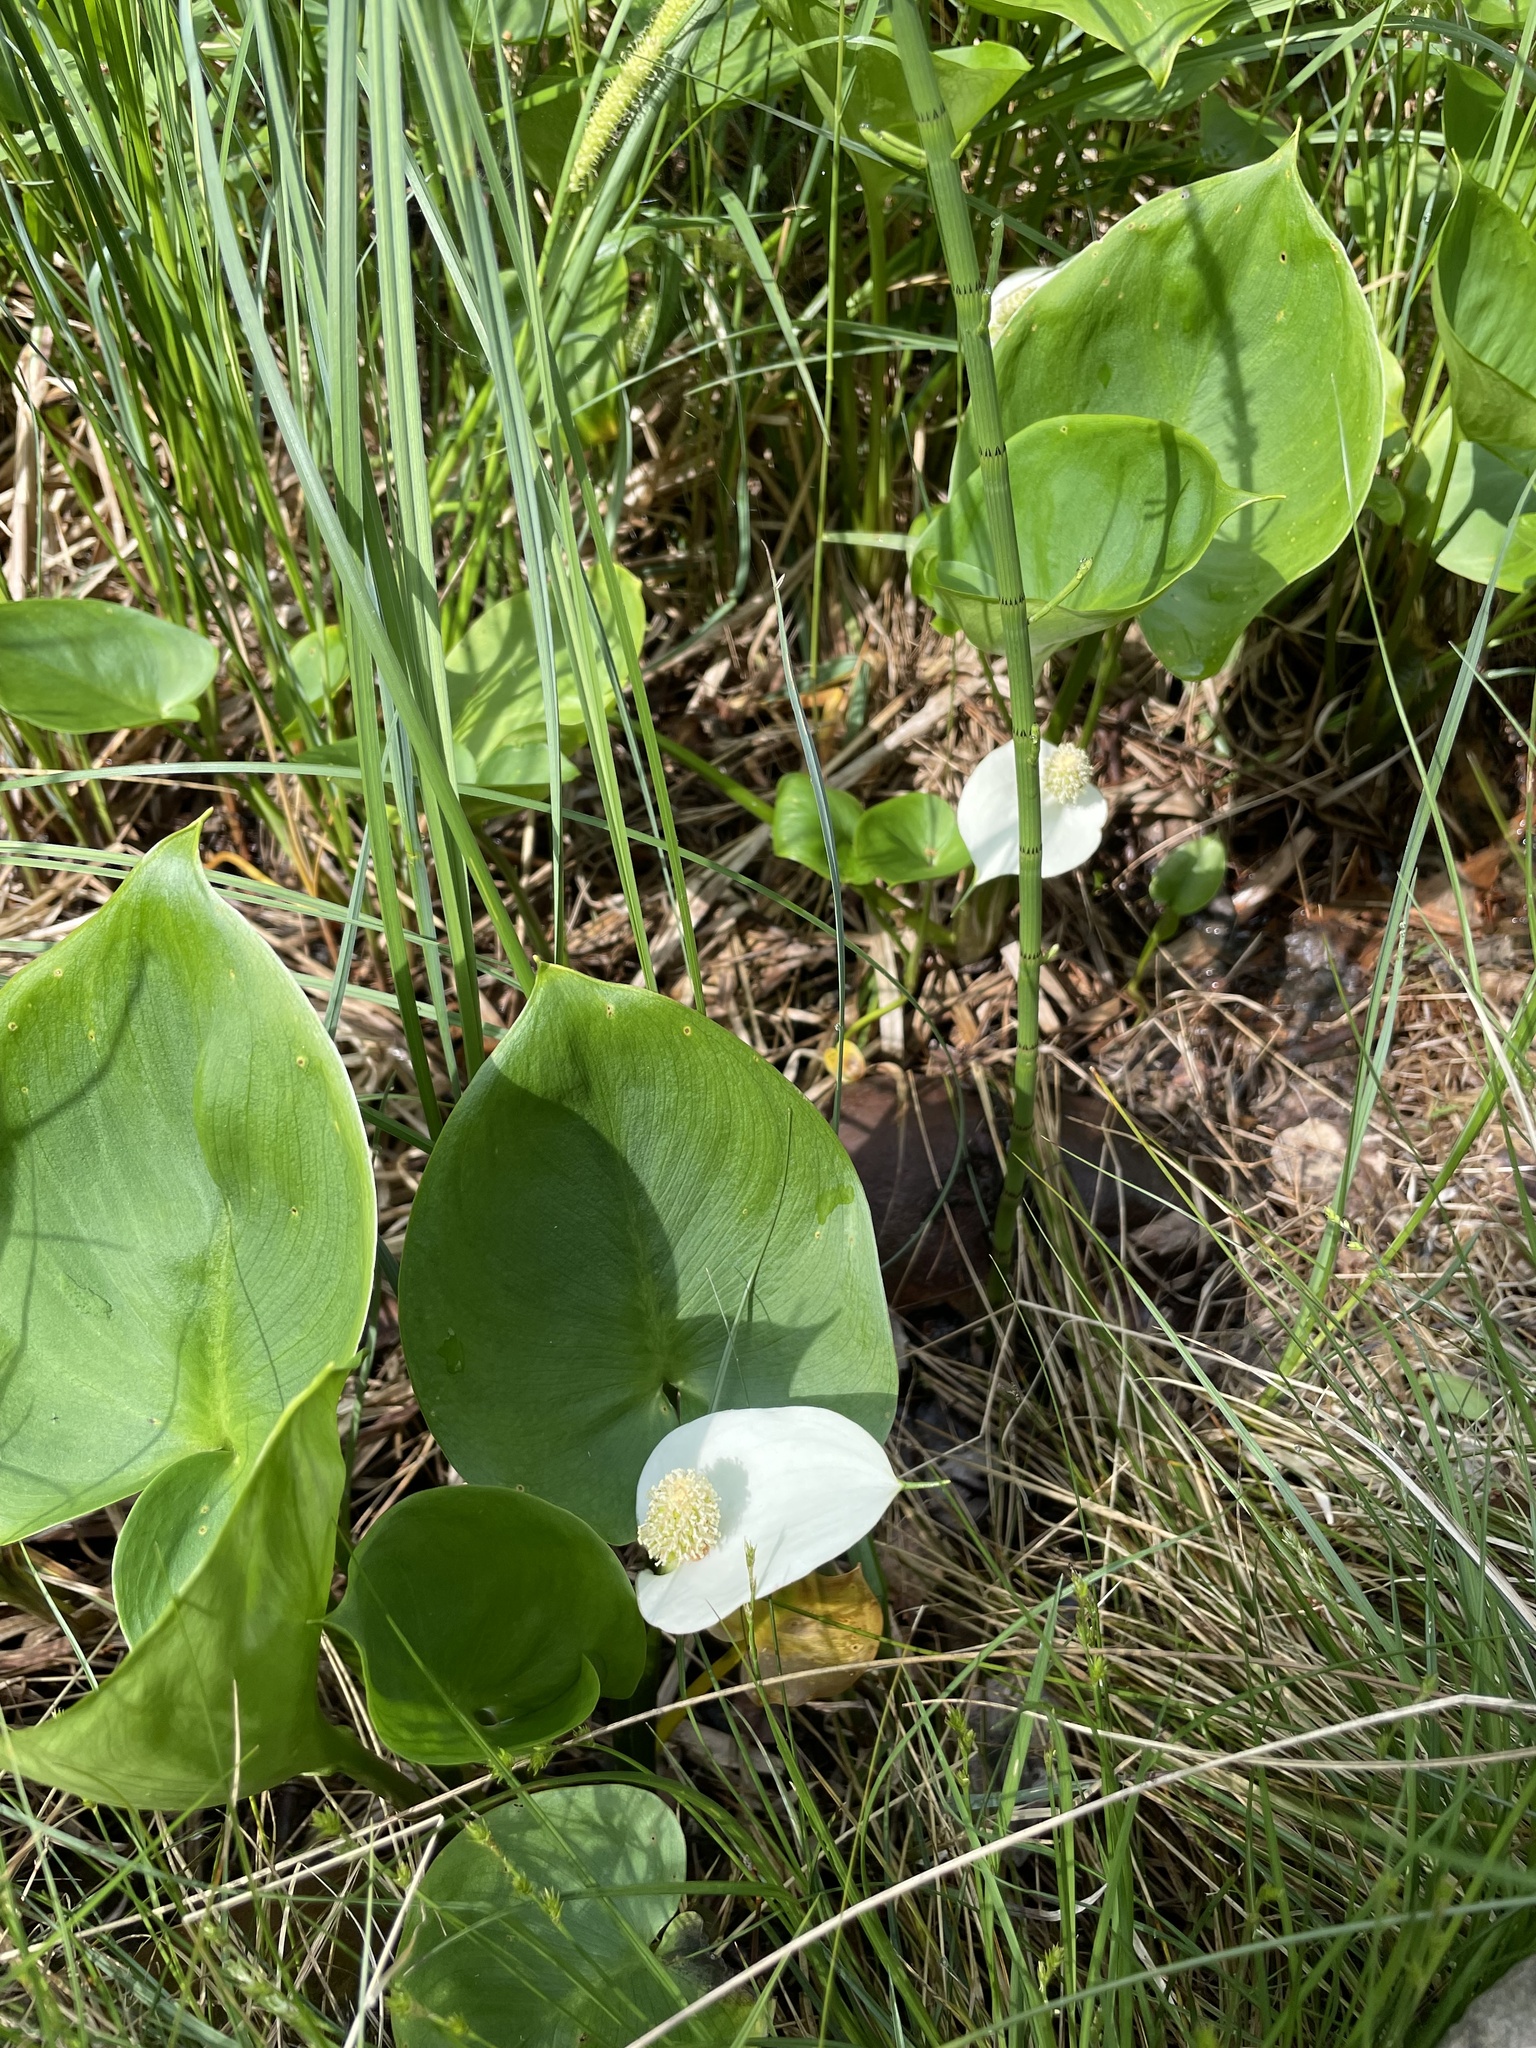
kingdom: Plantae
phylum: Tracheophyta
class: Liliopsida
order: Alismatales
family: Araceae
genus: Calla
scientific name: Calla palustris
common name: Bog arum
